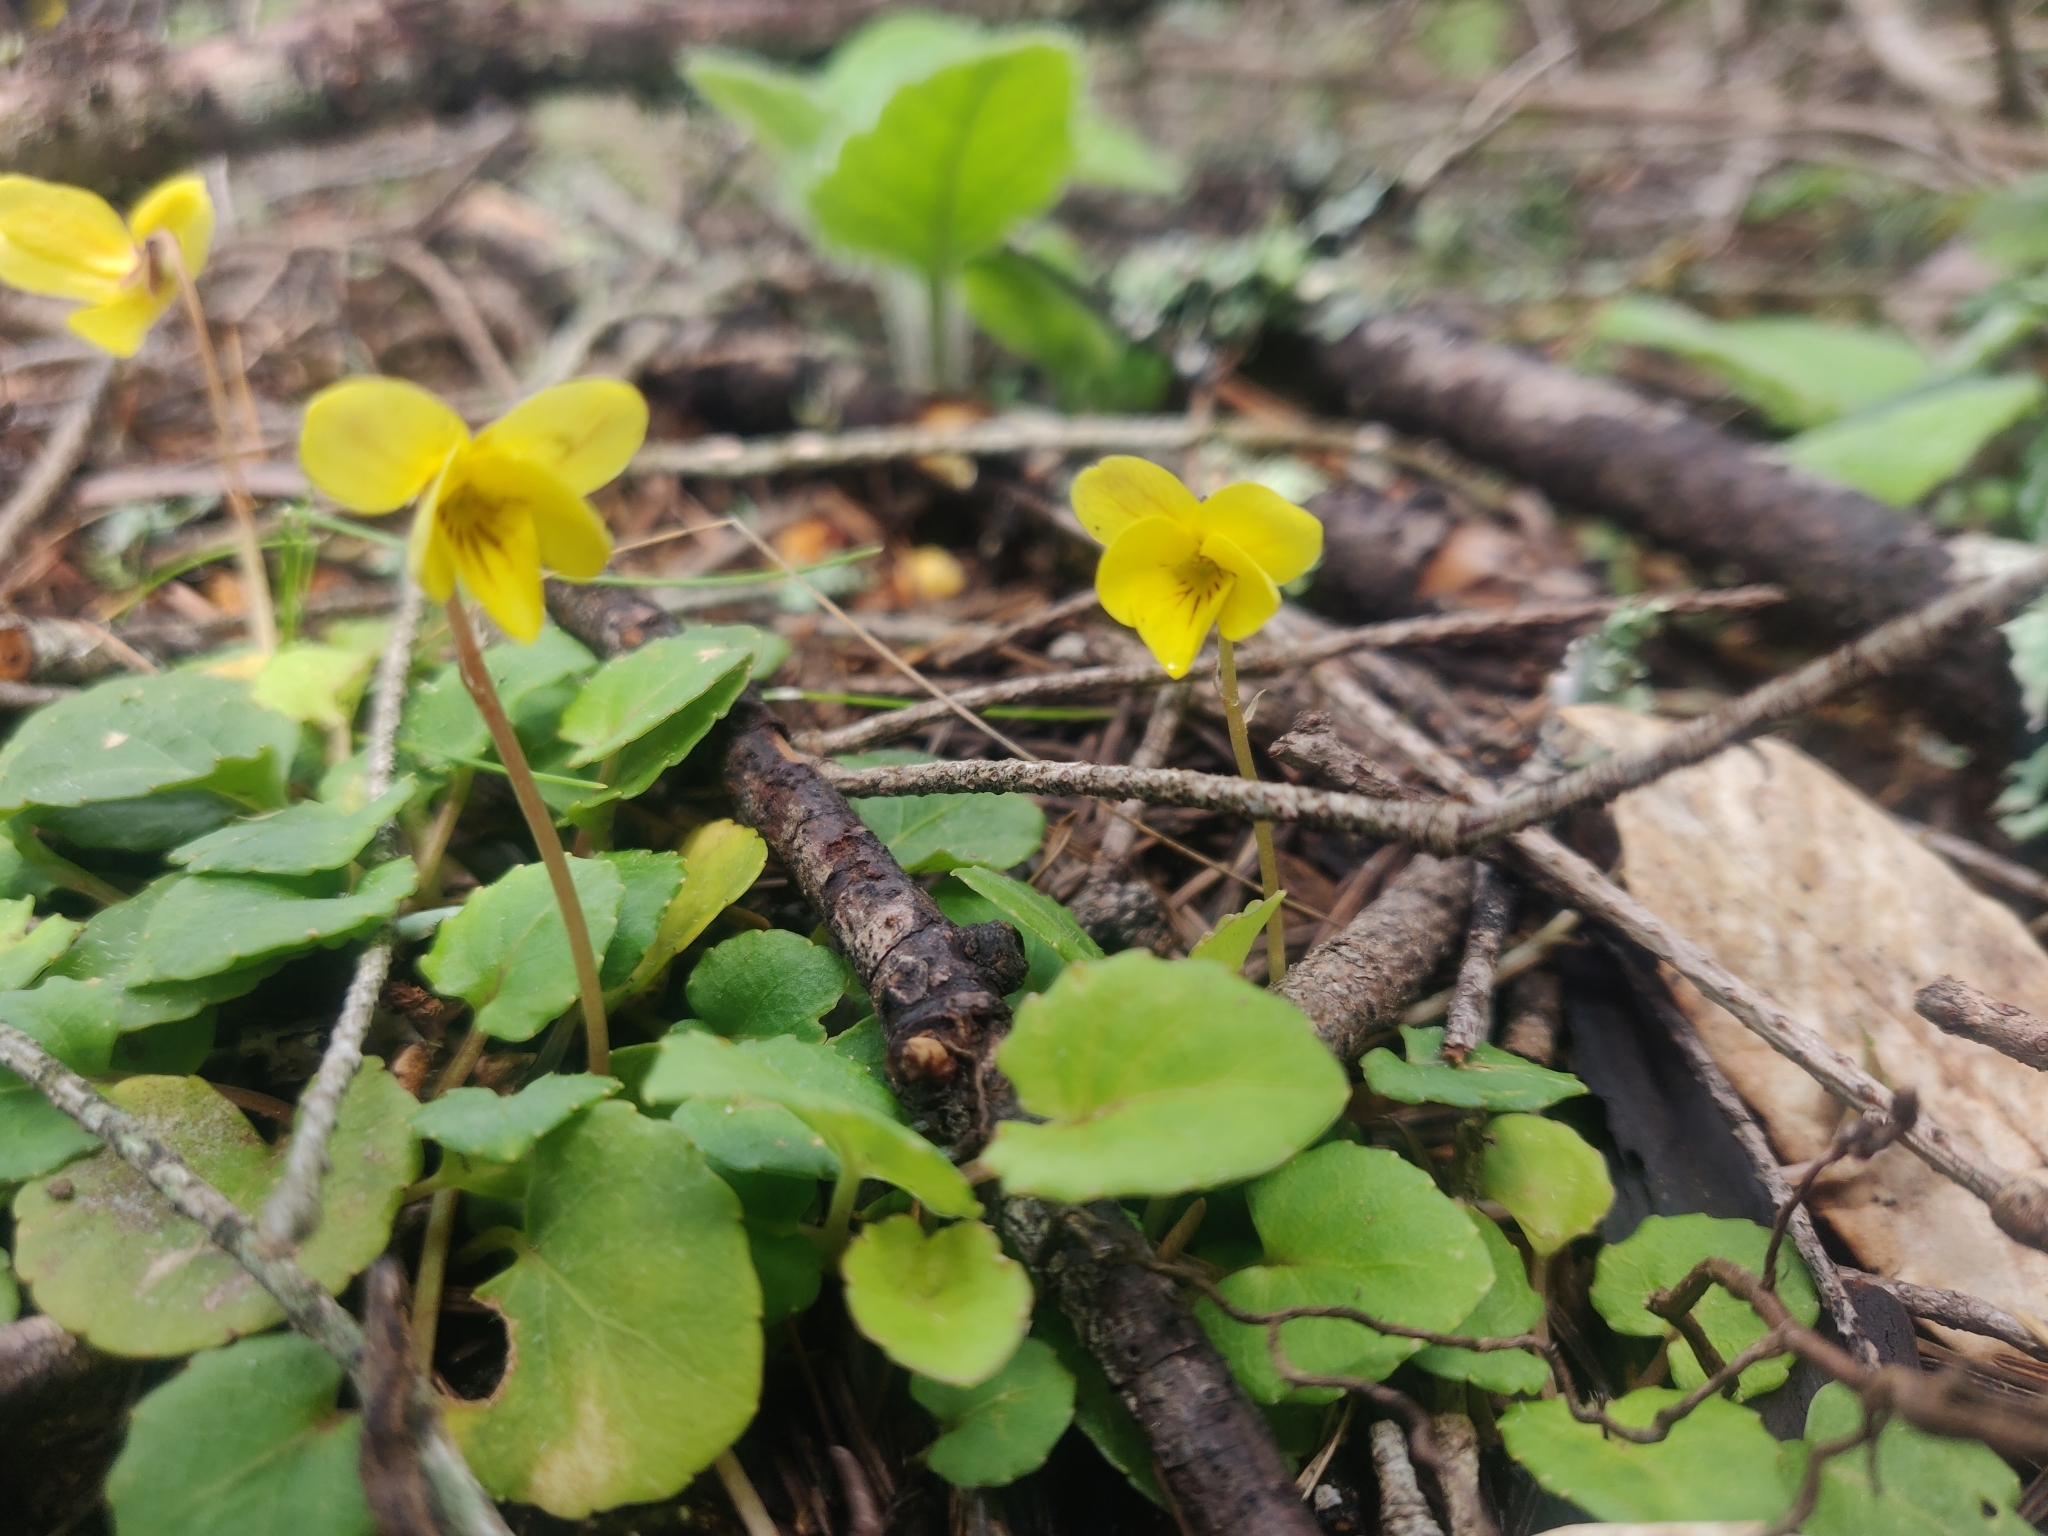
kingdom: Plantae
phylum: Tracheophyta
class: Magnoliopsida
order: Malpighiales
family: Violaceae
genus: Viola
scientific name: Viola sempervirens
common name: Evergreen violet
